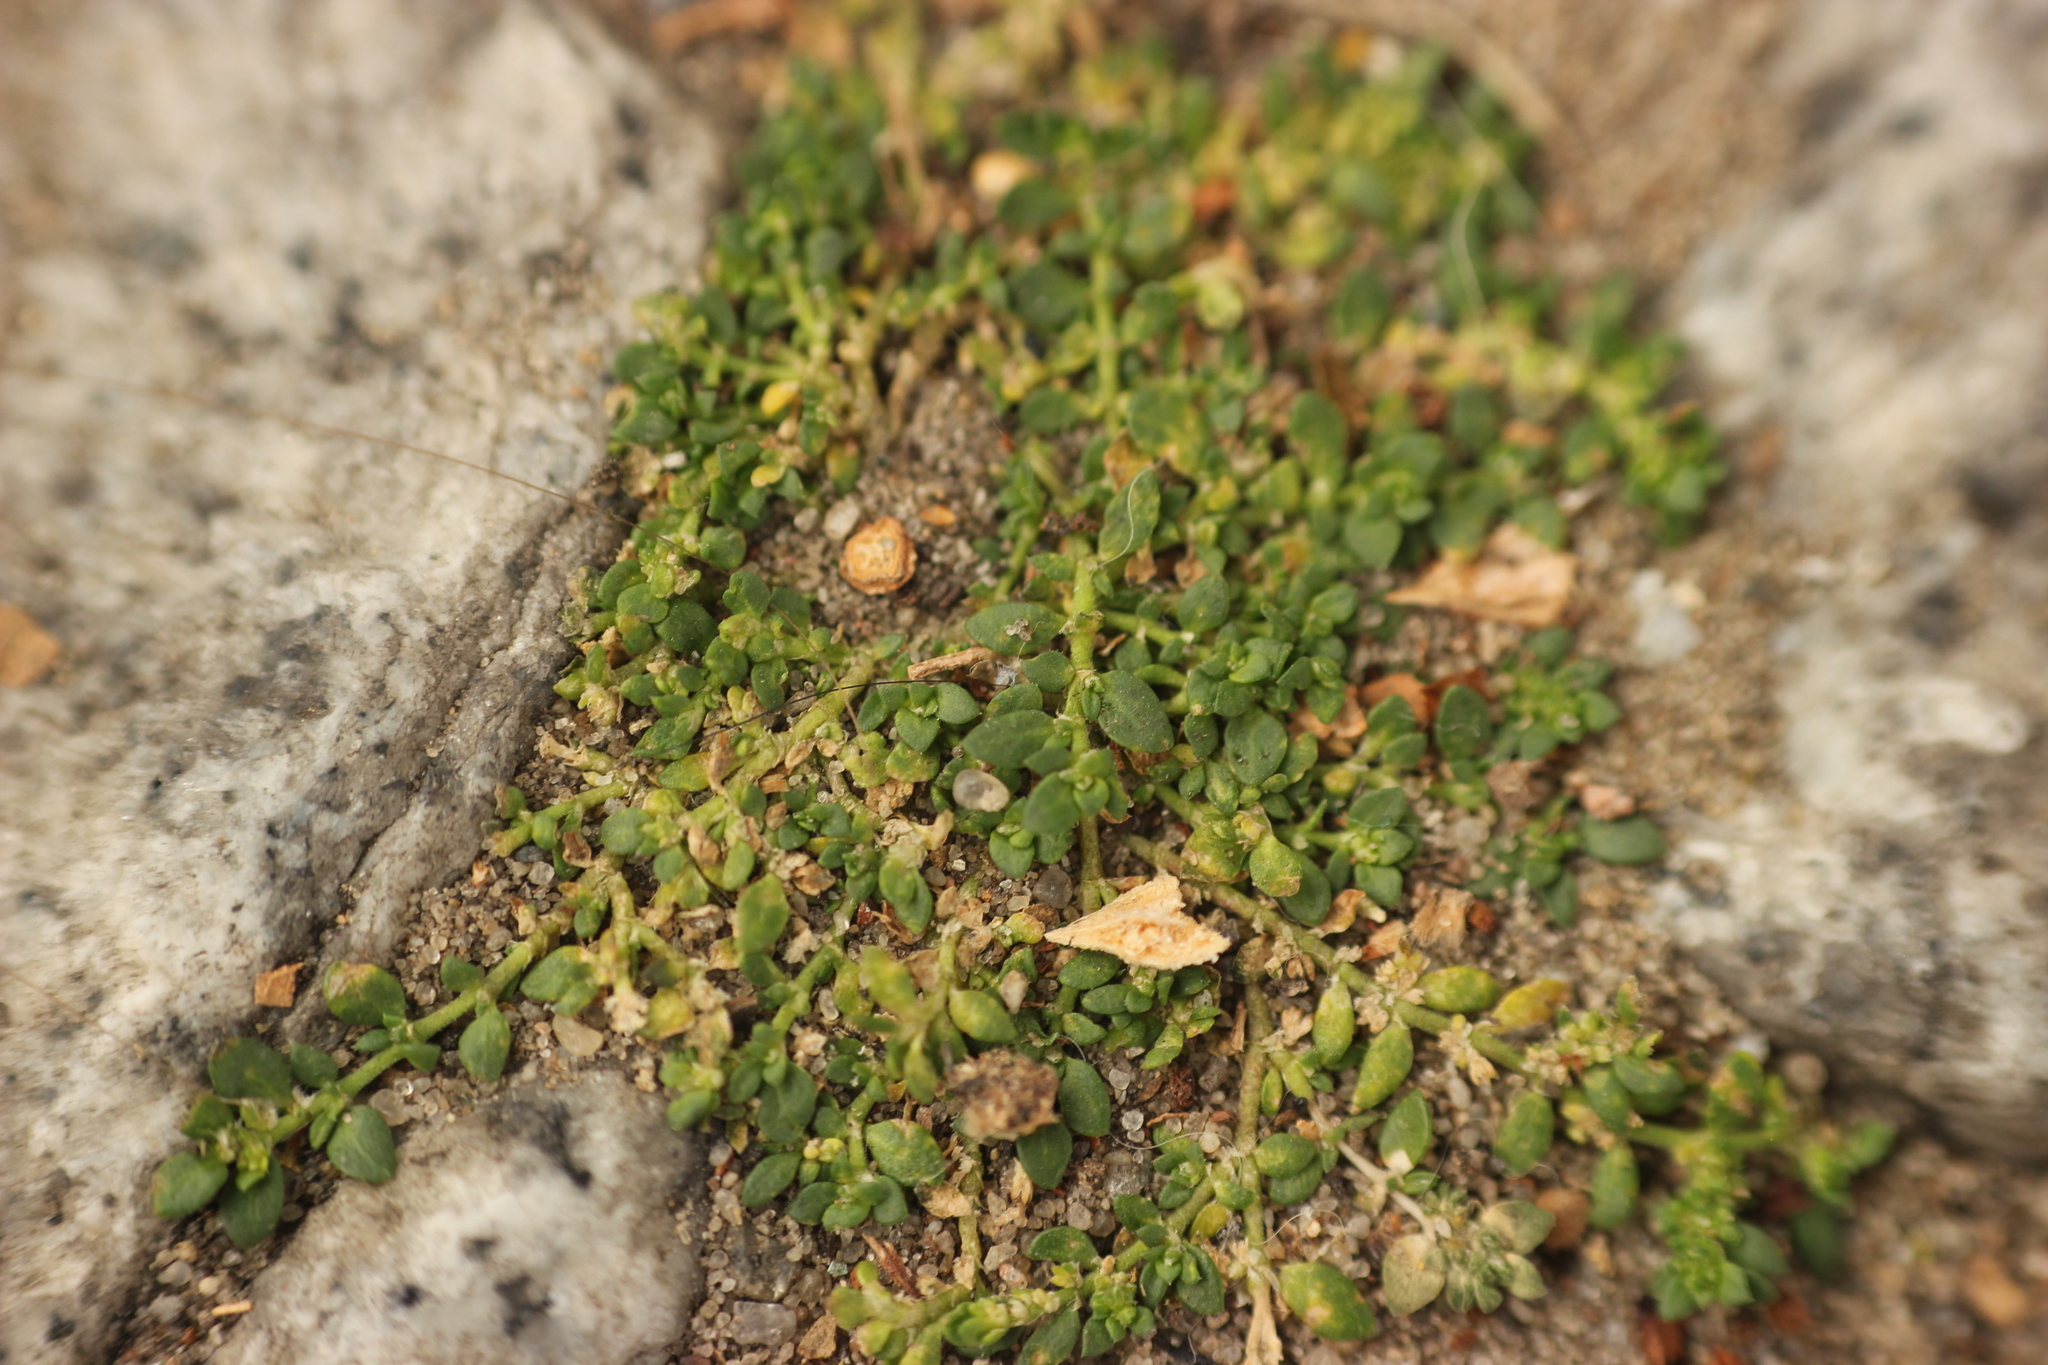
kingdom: Plantae
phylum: Tracheophyta
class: Magnoliopsida
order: Caryophyllales
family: Caryophyllaceae
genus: Herniaria
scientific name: Herniaria glabra
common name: Smooth rupturewort
